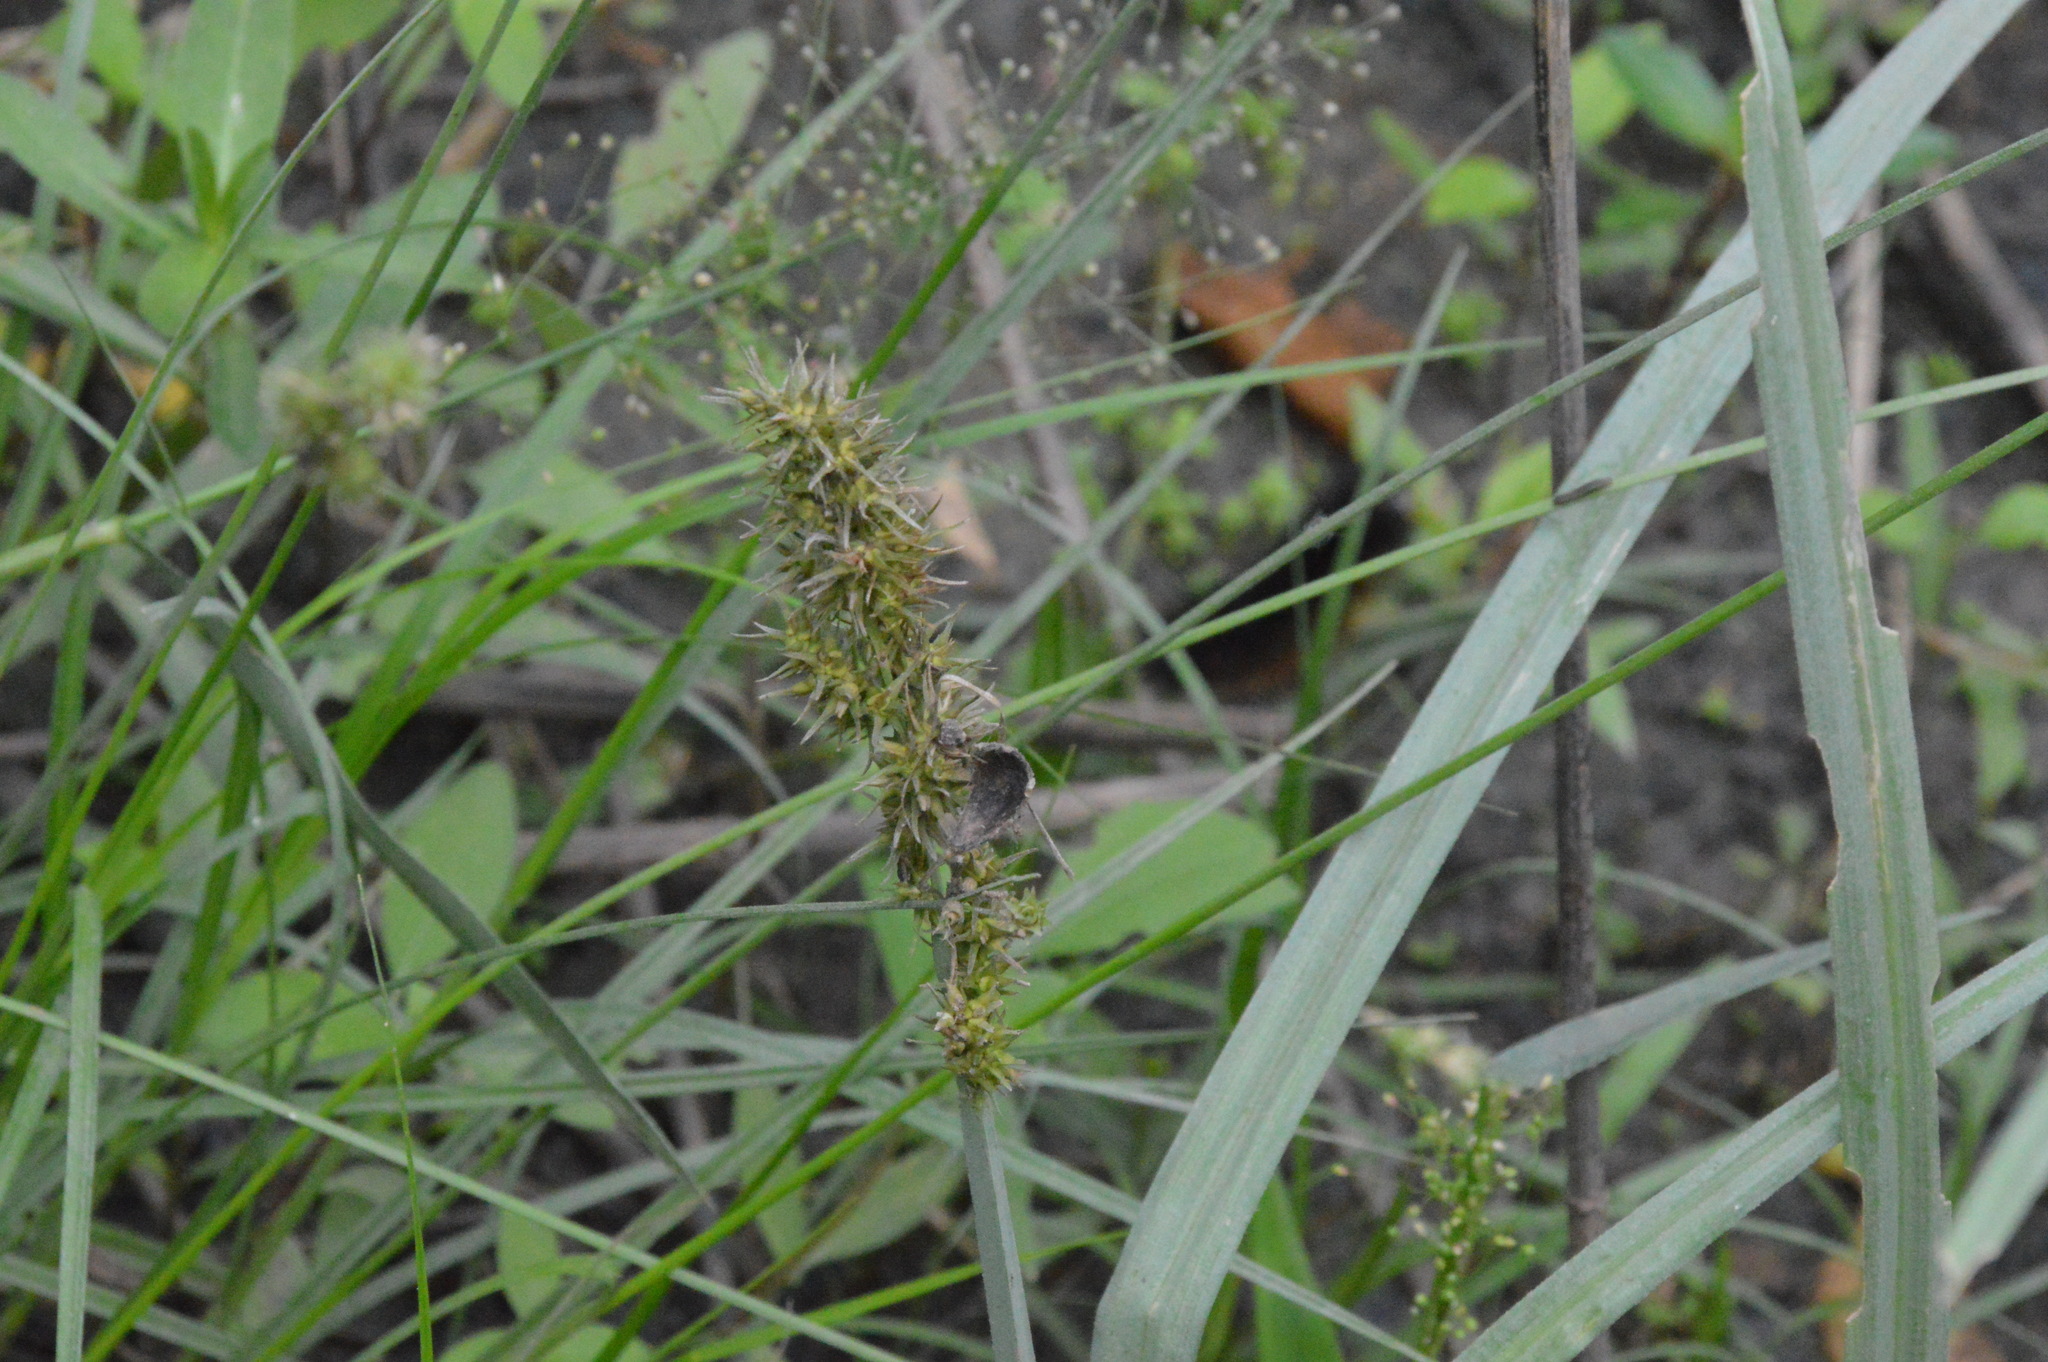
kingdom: Plantae
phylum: Tracheophyta
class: Liliopsida
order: Poales
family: Cyperaceae
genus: Carex
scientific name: Carex crus-corvi
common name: Crow-spur sedge
